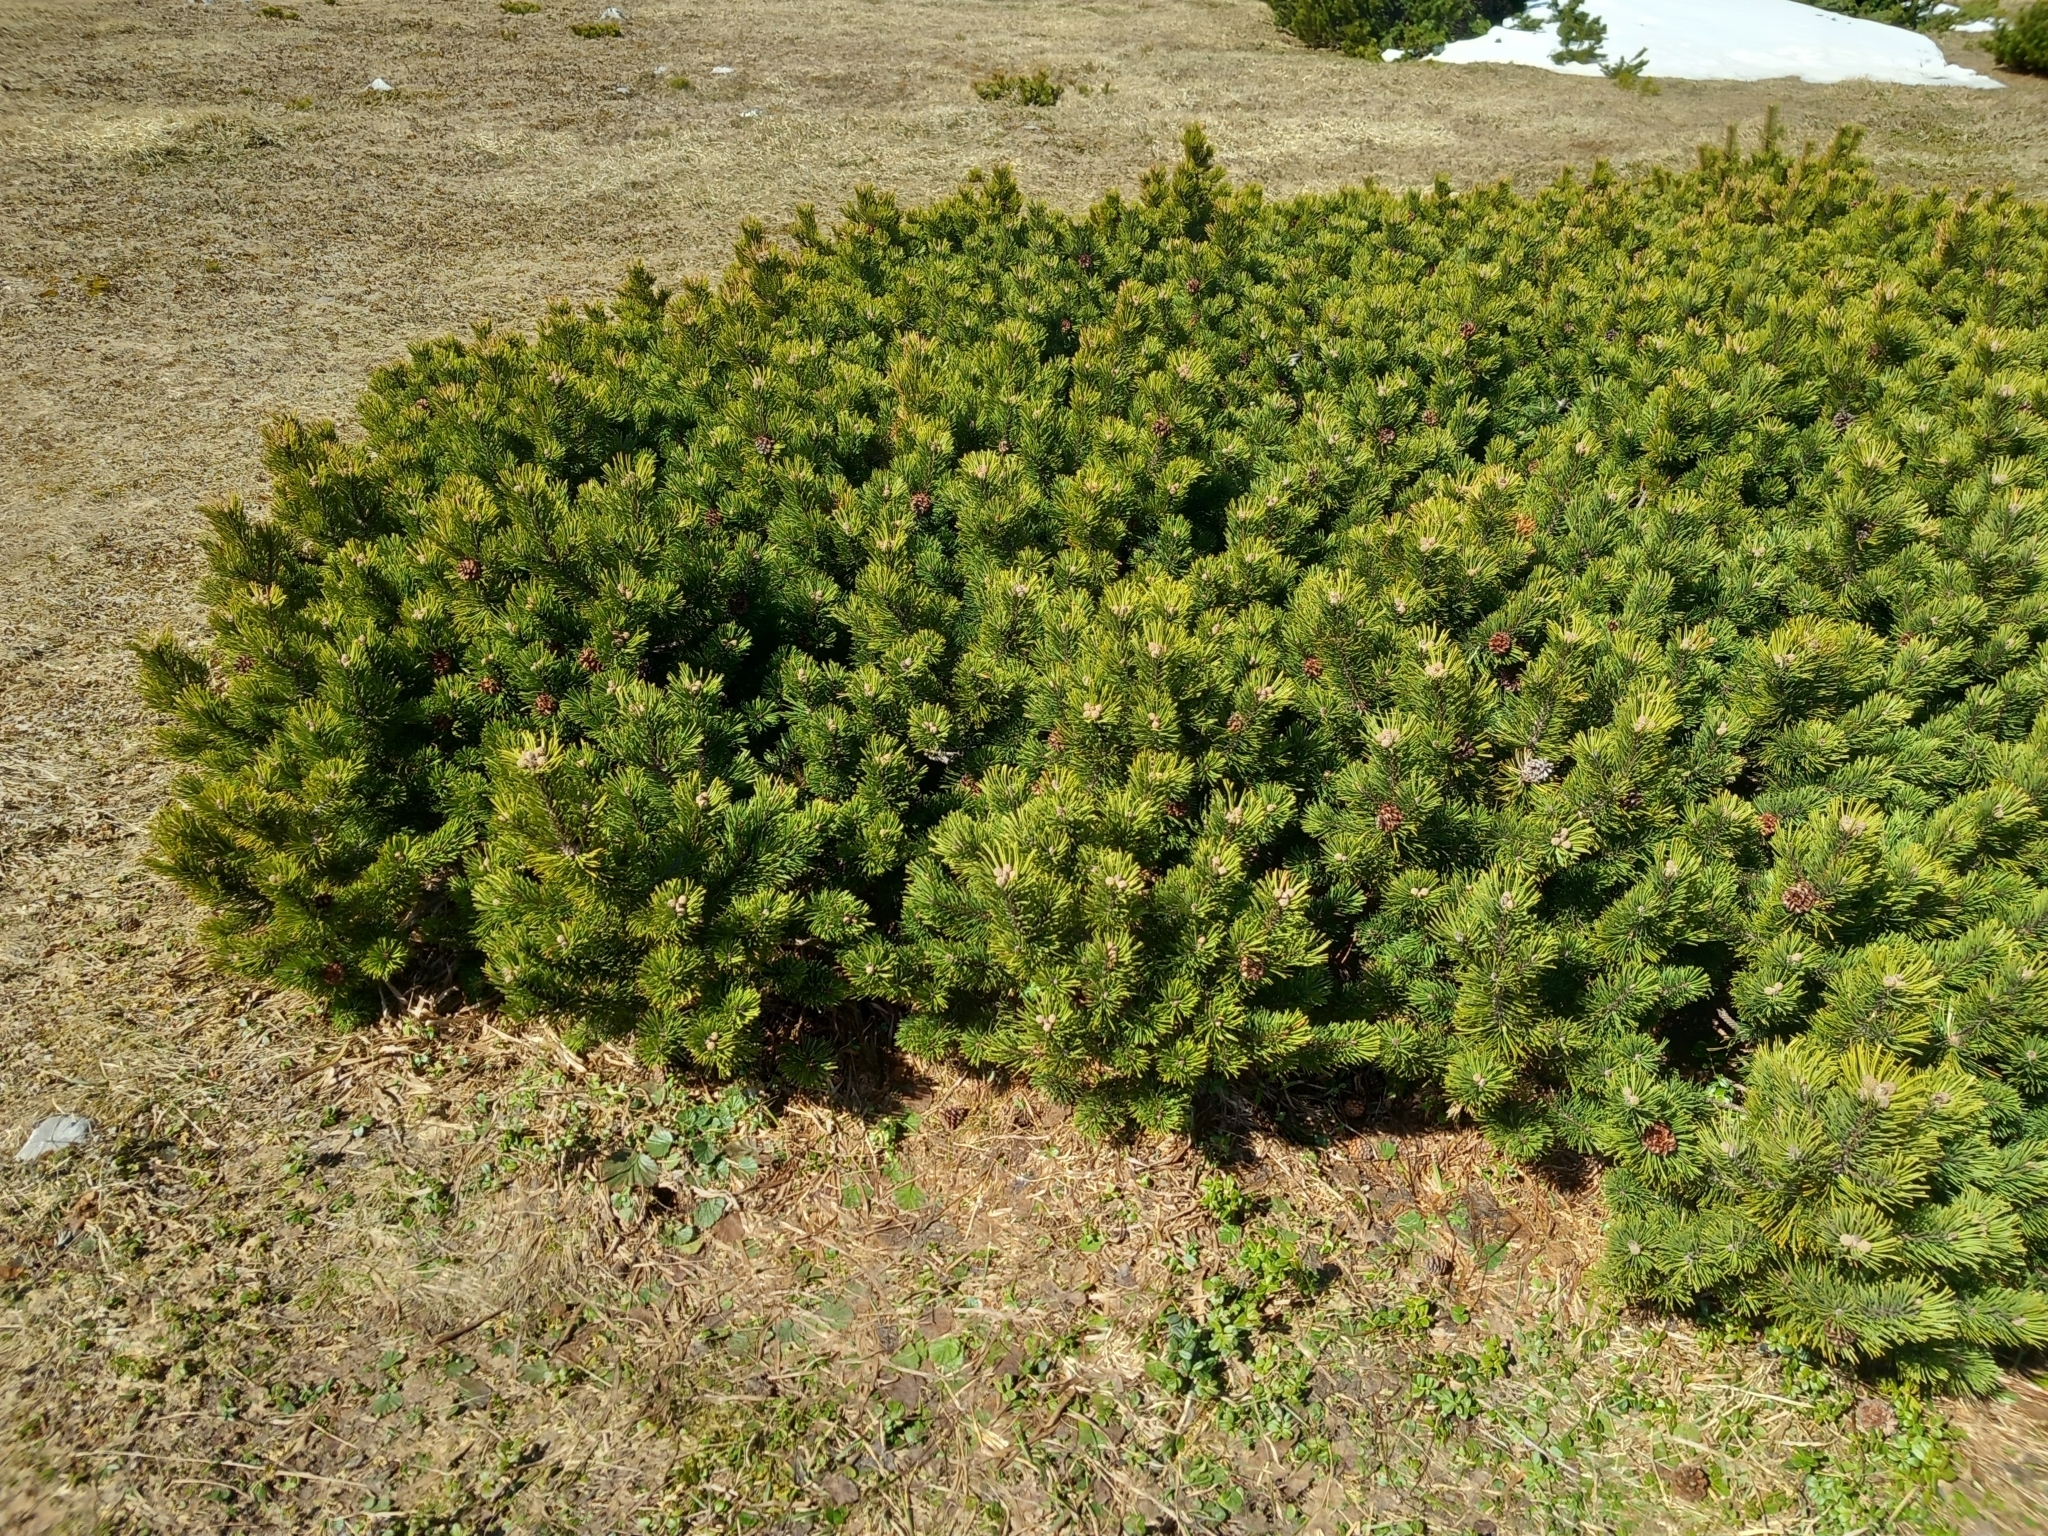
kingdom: Plantae
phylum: Tracheophyta
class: Pinopsida
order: Pinales
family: Pinaceae
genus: Pinus
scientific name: Pinus mugo
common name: Mugo pine
